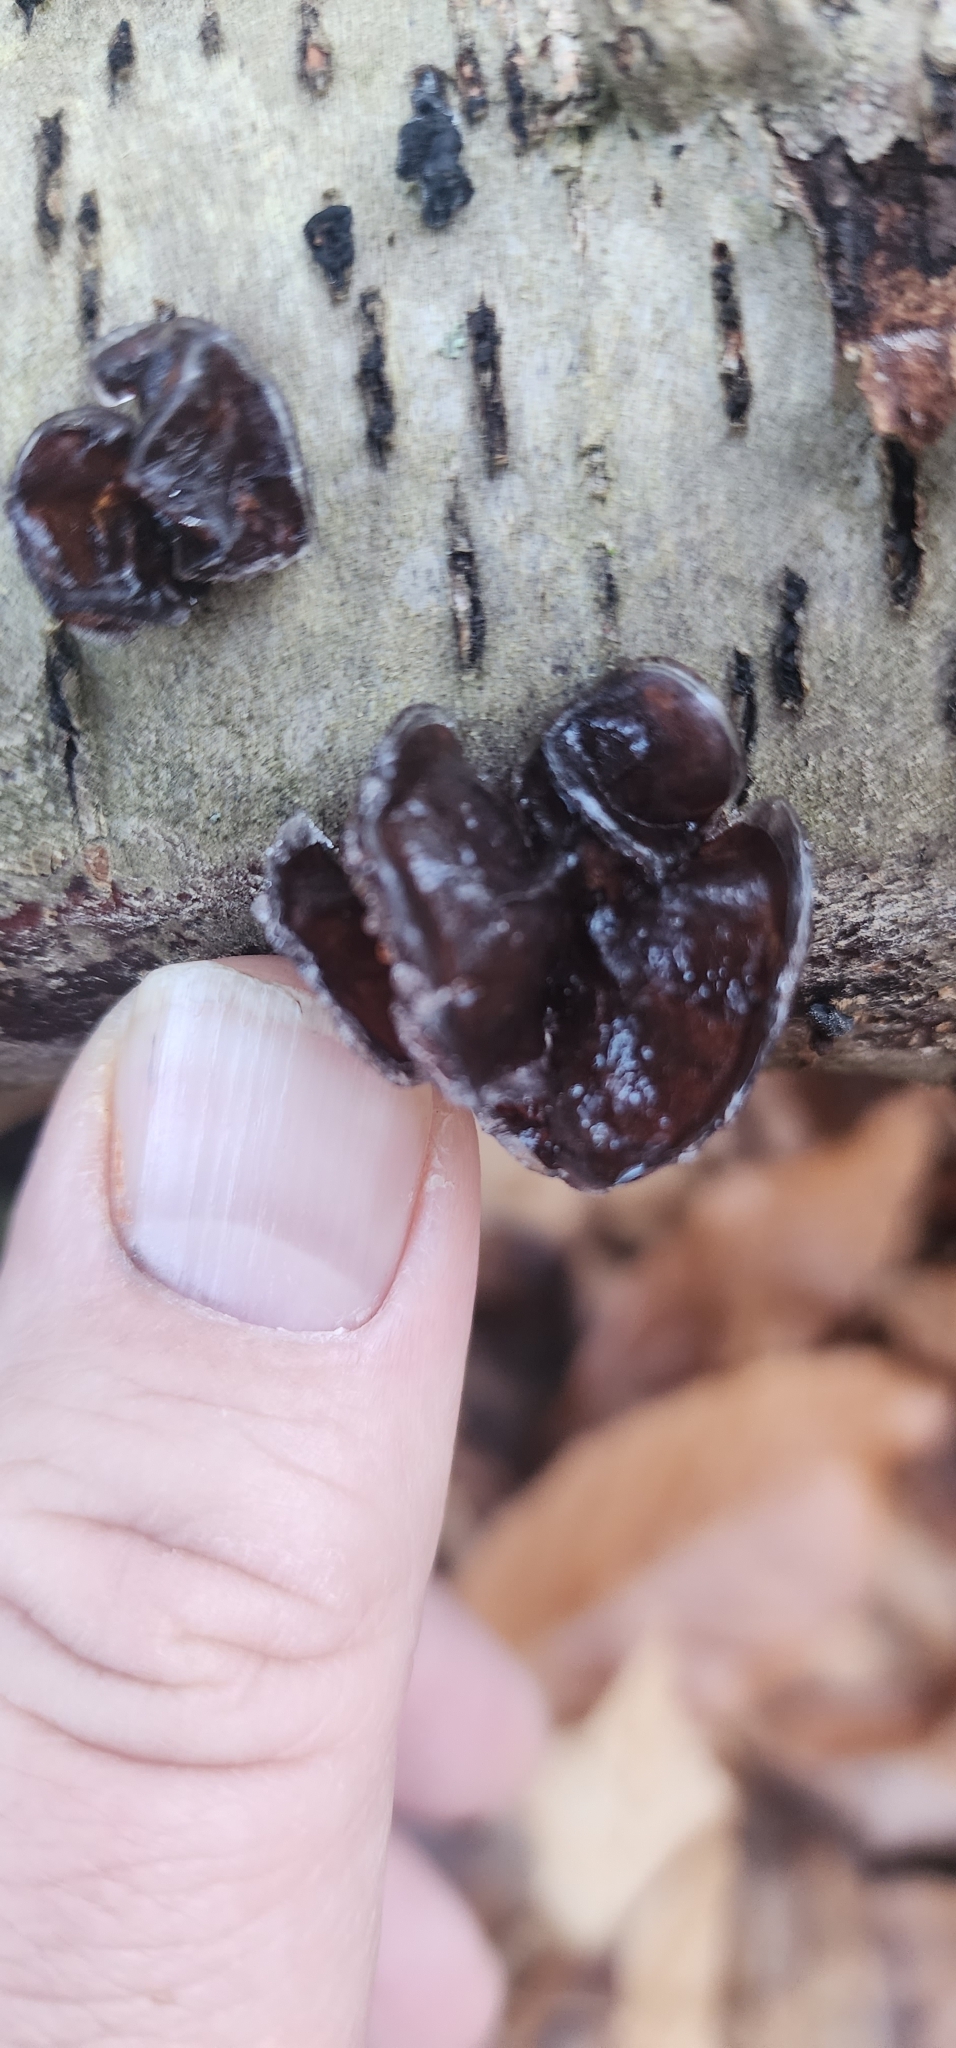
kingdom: Fungi
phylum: Basidiomycota
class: Agaricomycetes
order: Auriculariales
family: Auriculariaceae
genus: Exidia
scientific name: Exidia
